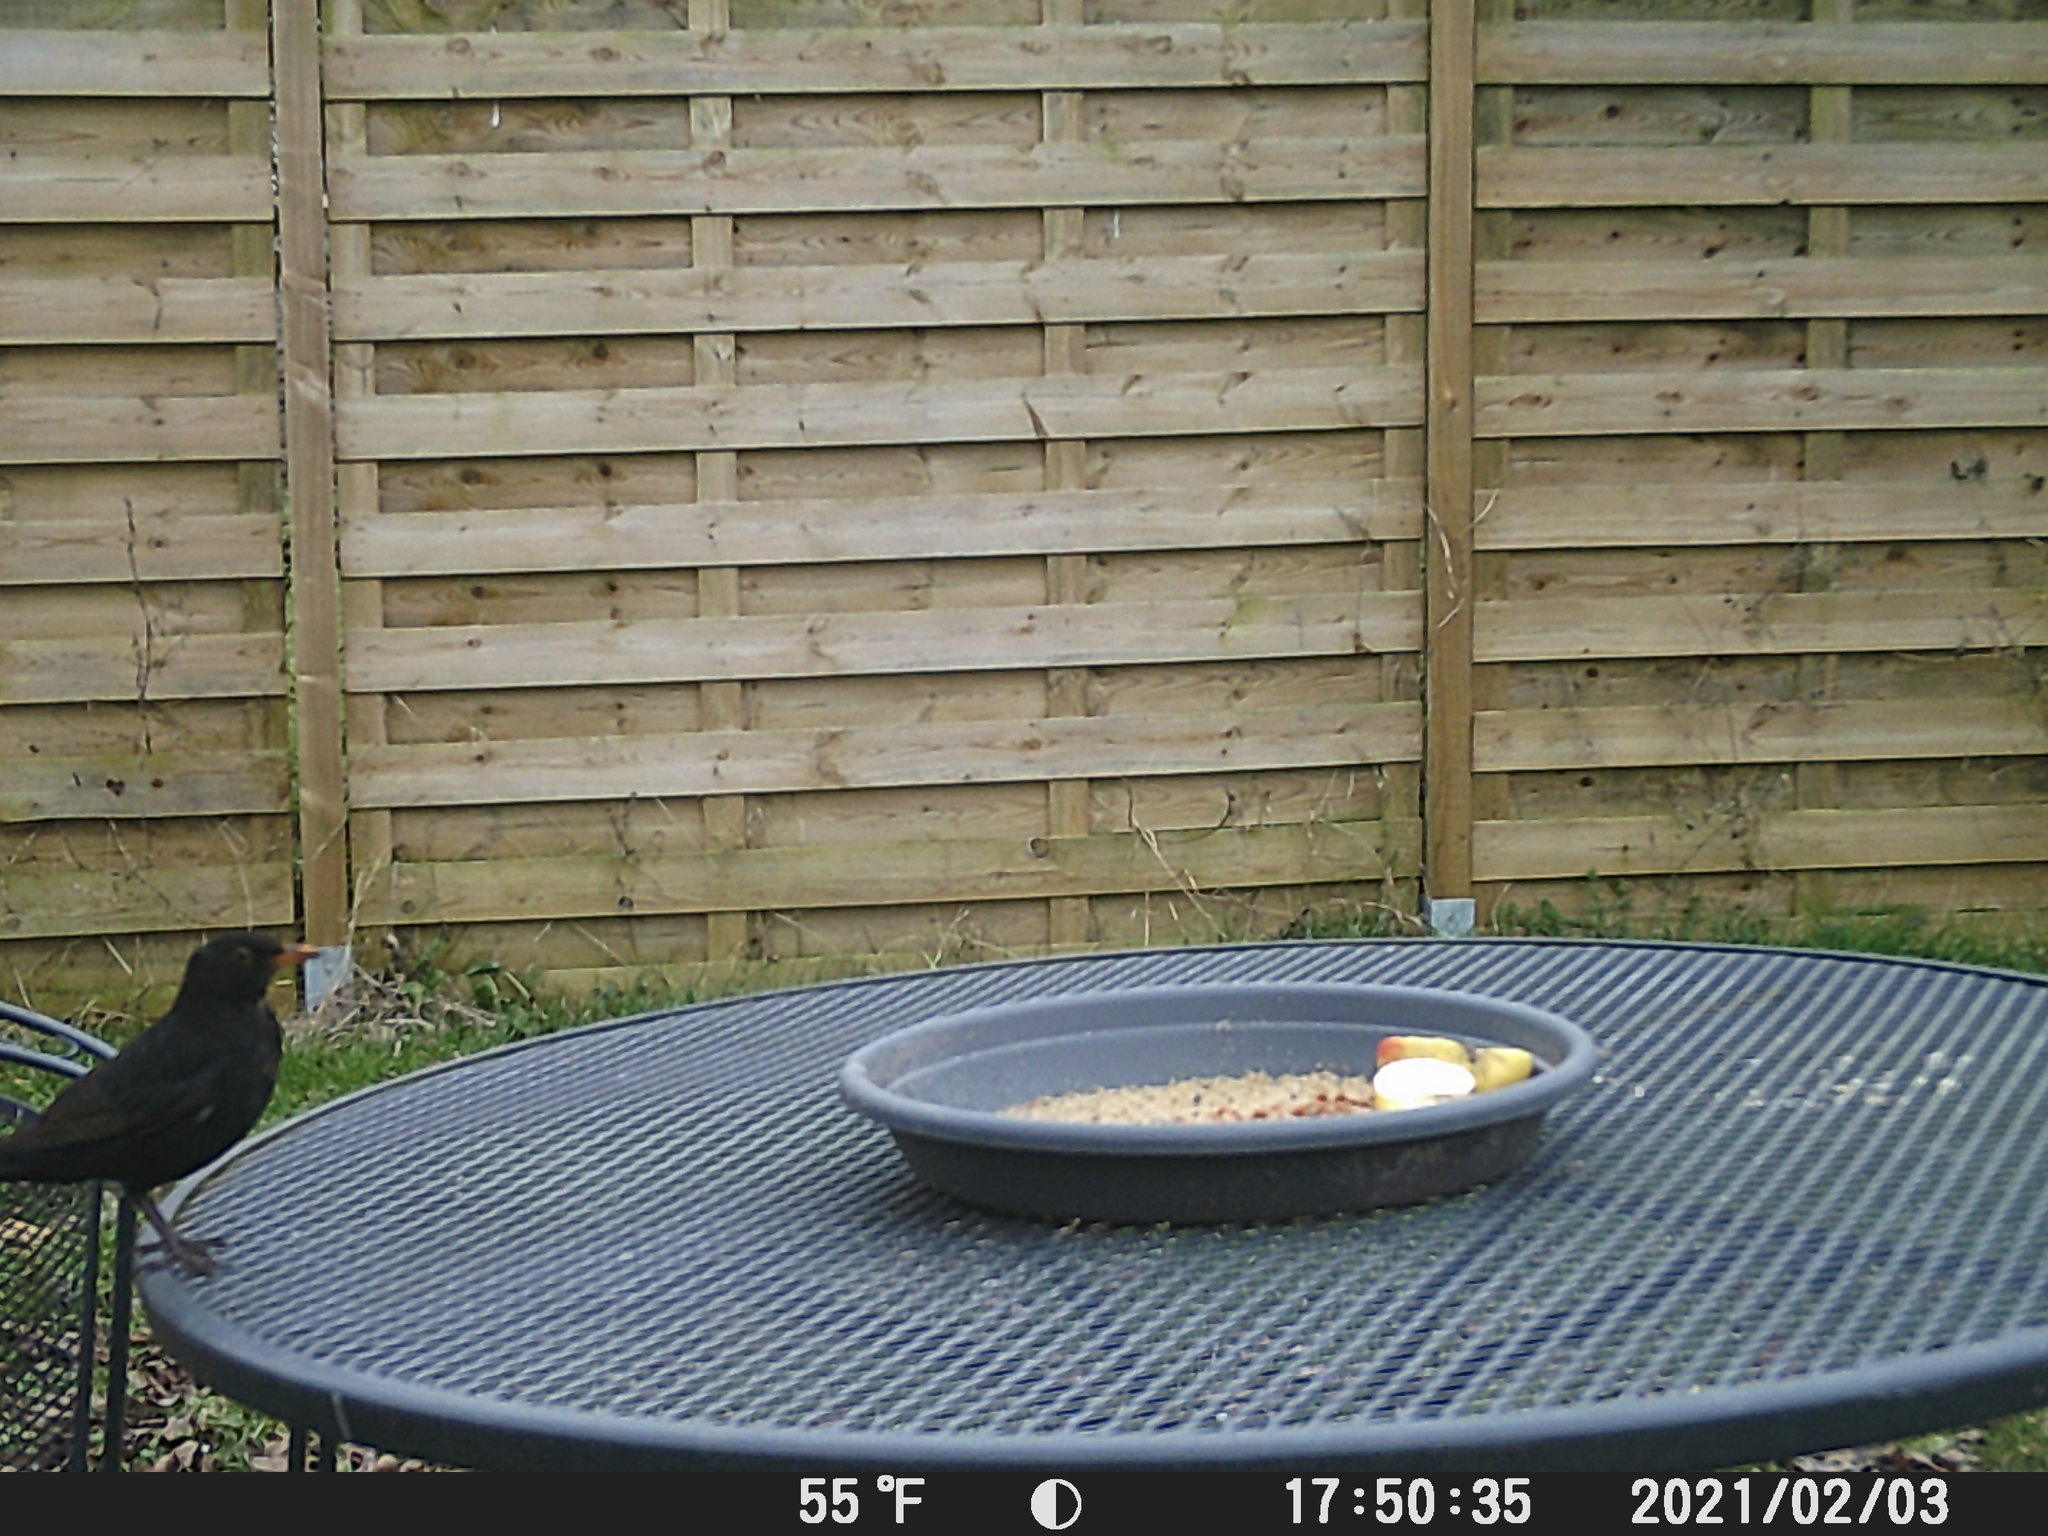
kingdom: Animalia
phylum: Chordata
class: Aves
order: Passeriformes
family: Turdidae
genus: Turdus
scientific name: Turdus merula
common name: Common blackbird
